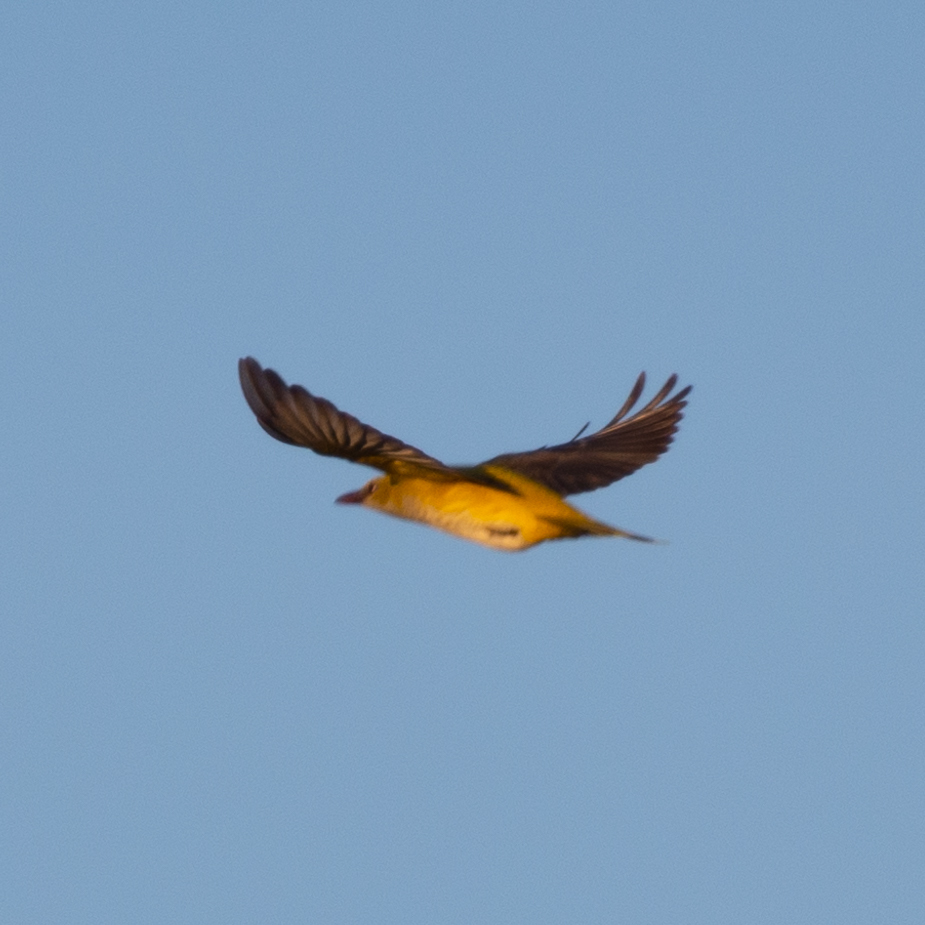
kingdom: Animalia
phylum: Chordata
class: Aves
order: Passeriformes
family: Oriolidae
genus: Oriolus
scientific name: Oriolus oriolus
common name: Eurasian golden oriole
